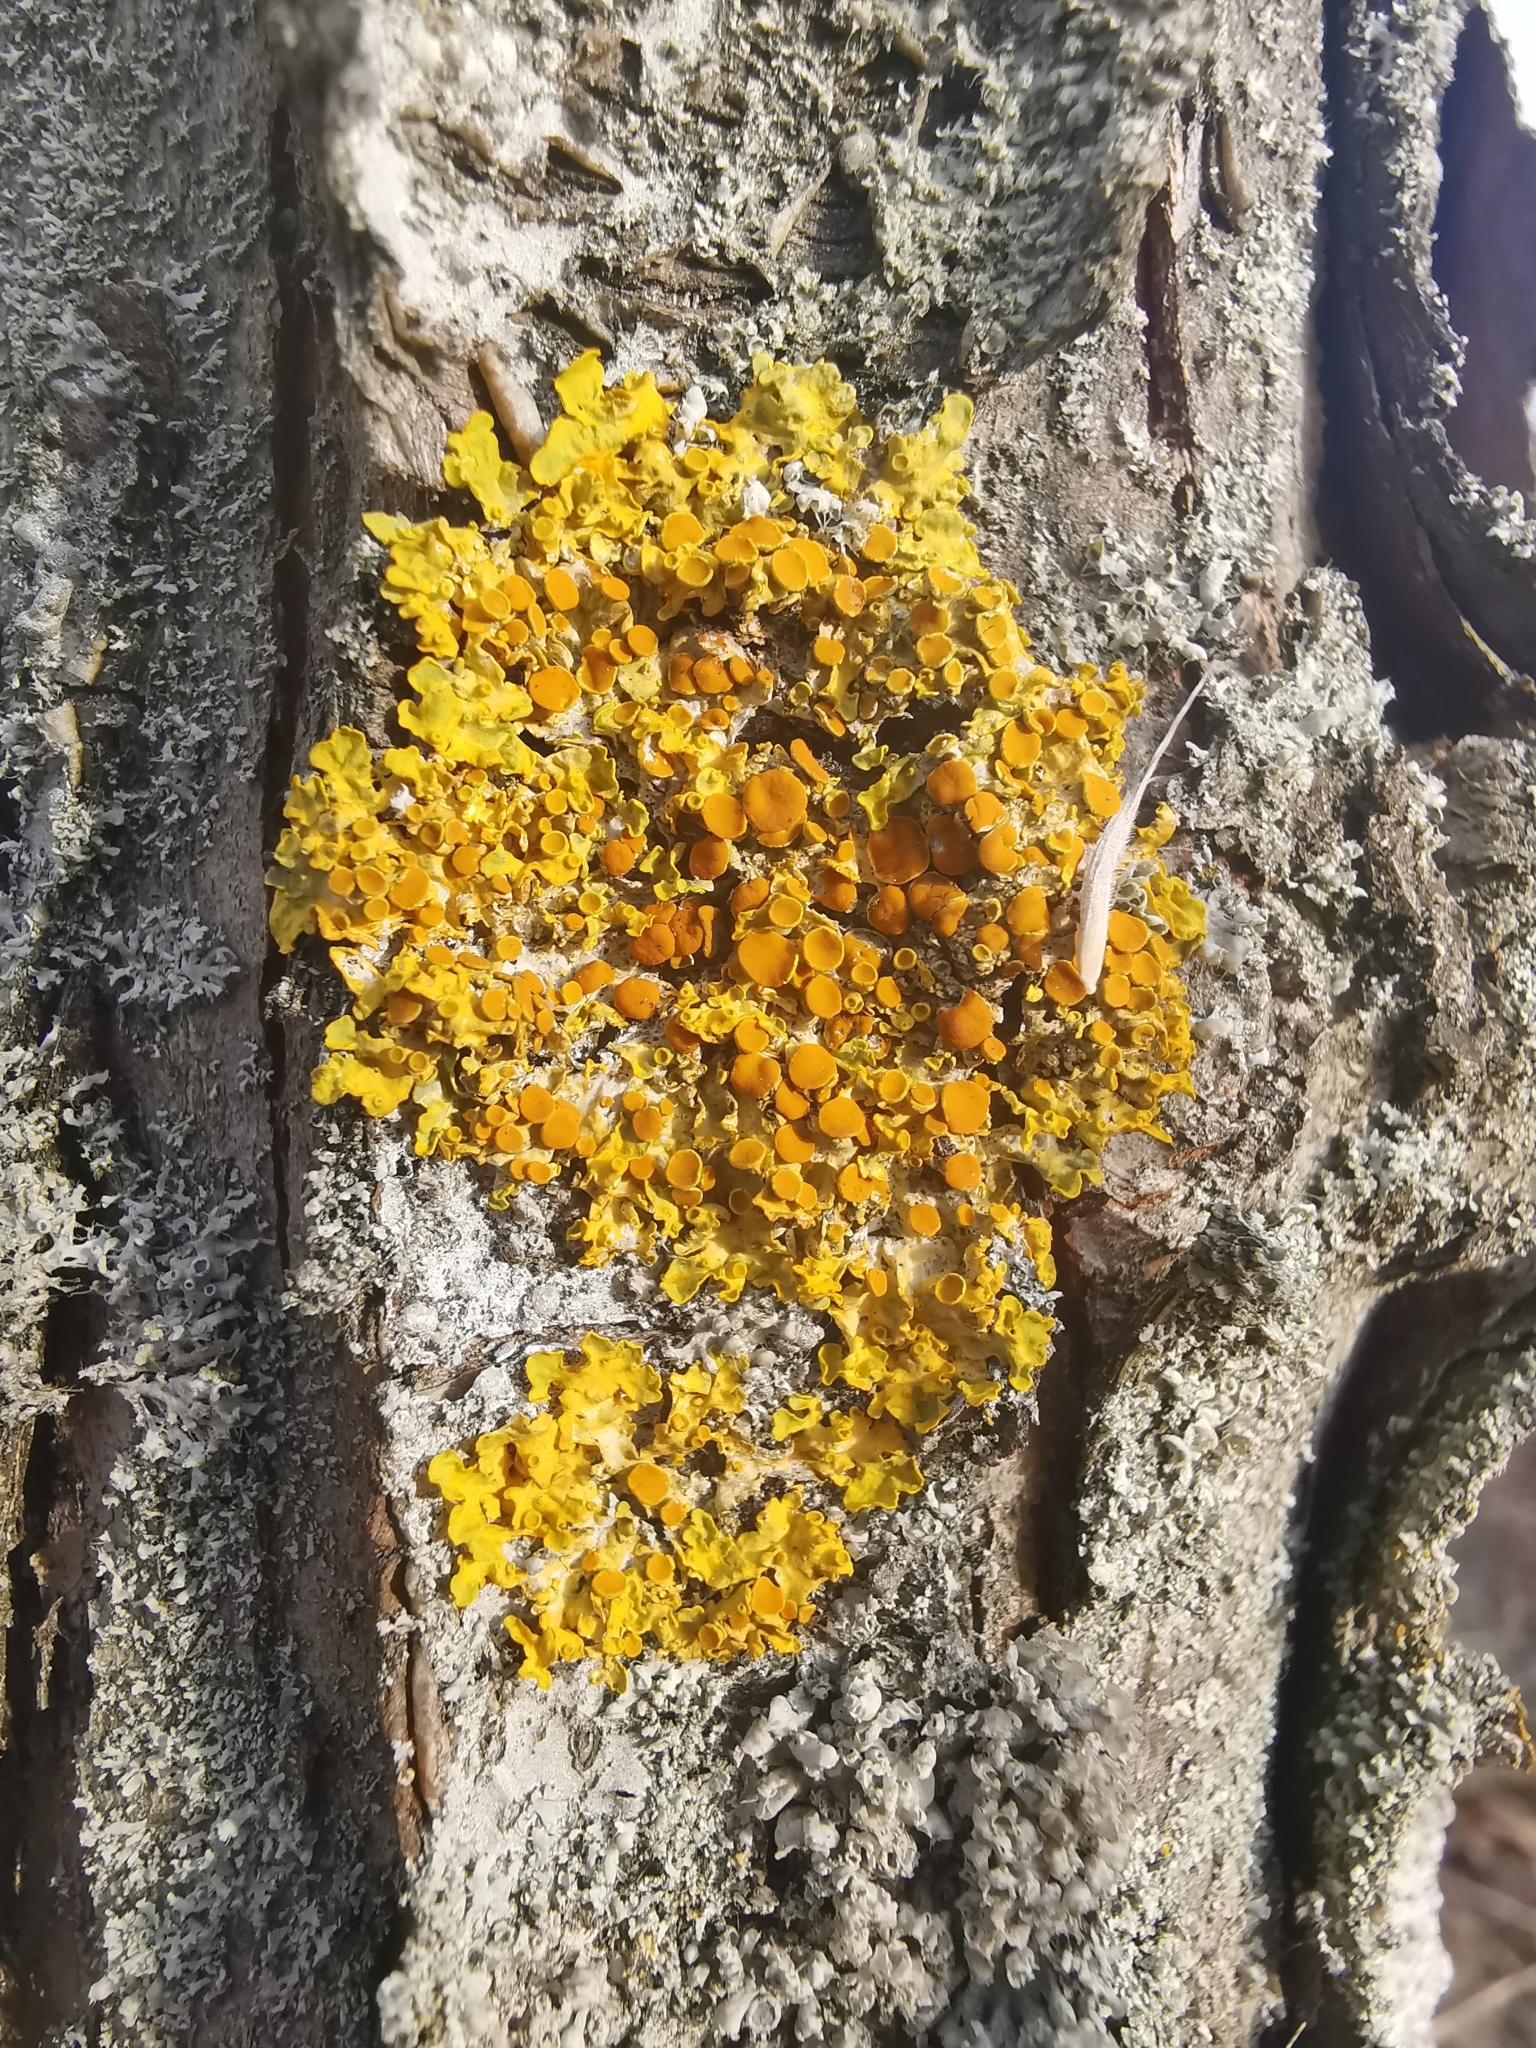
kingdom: Fungi
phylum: Ascomycota
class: Lecanoromycetes
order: Teloschistales
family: Teloschistaceae
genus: Xanthoria
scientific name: Xanthoria parietina
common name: Common orange lichen
